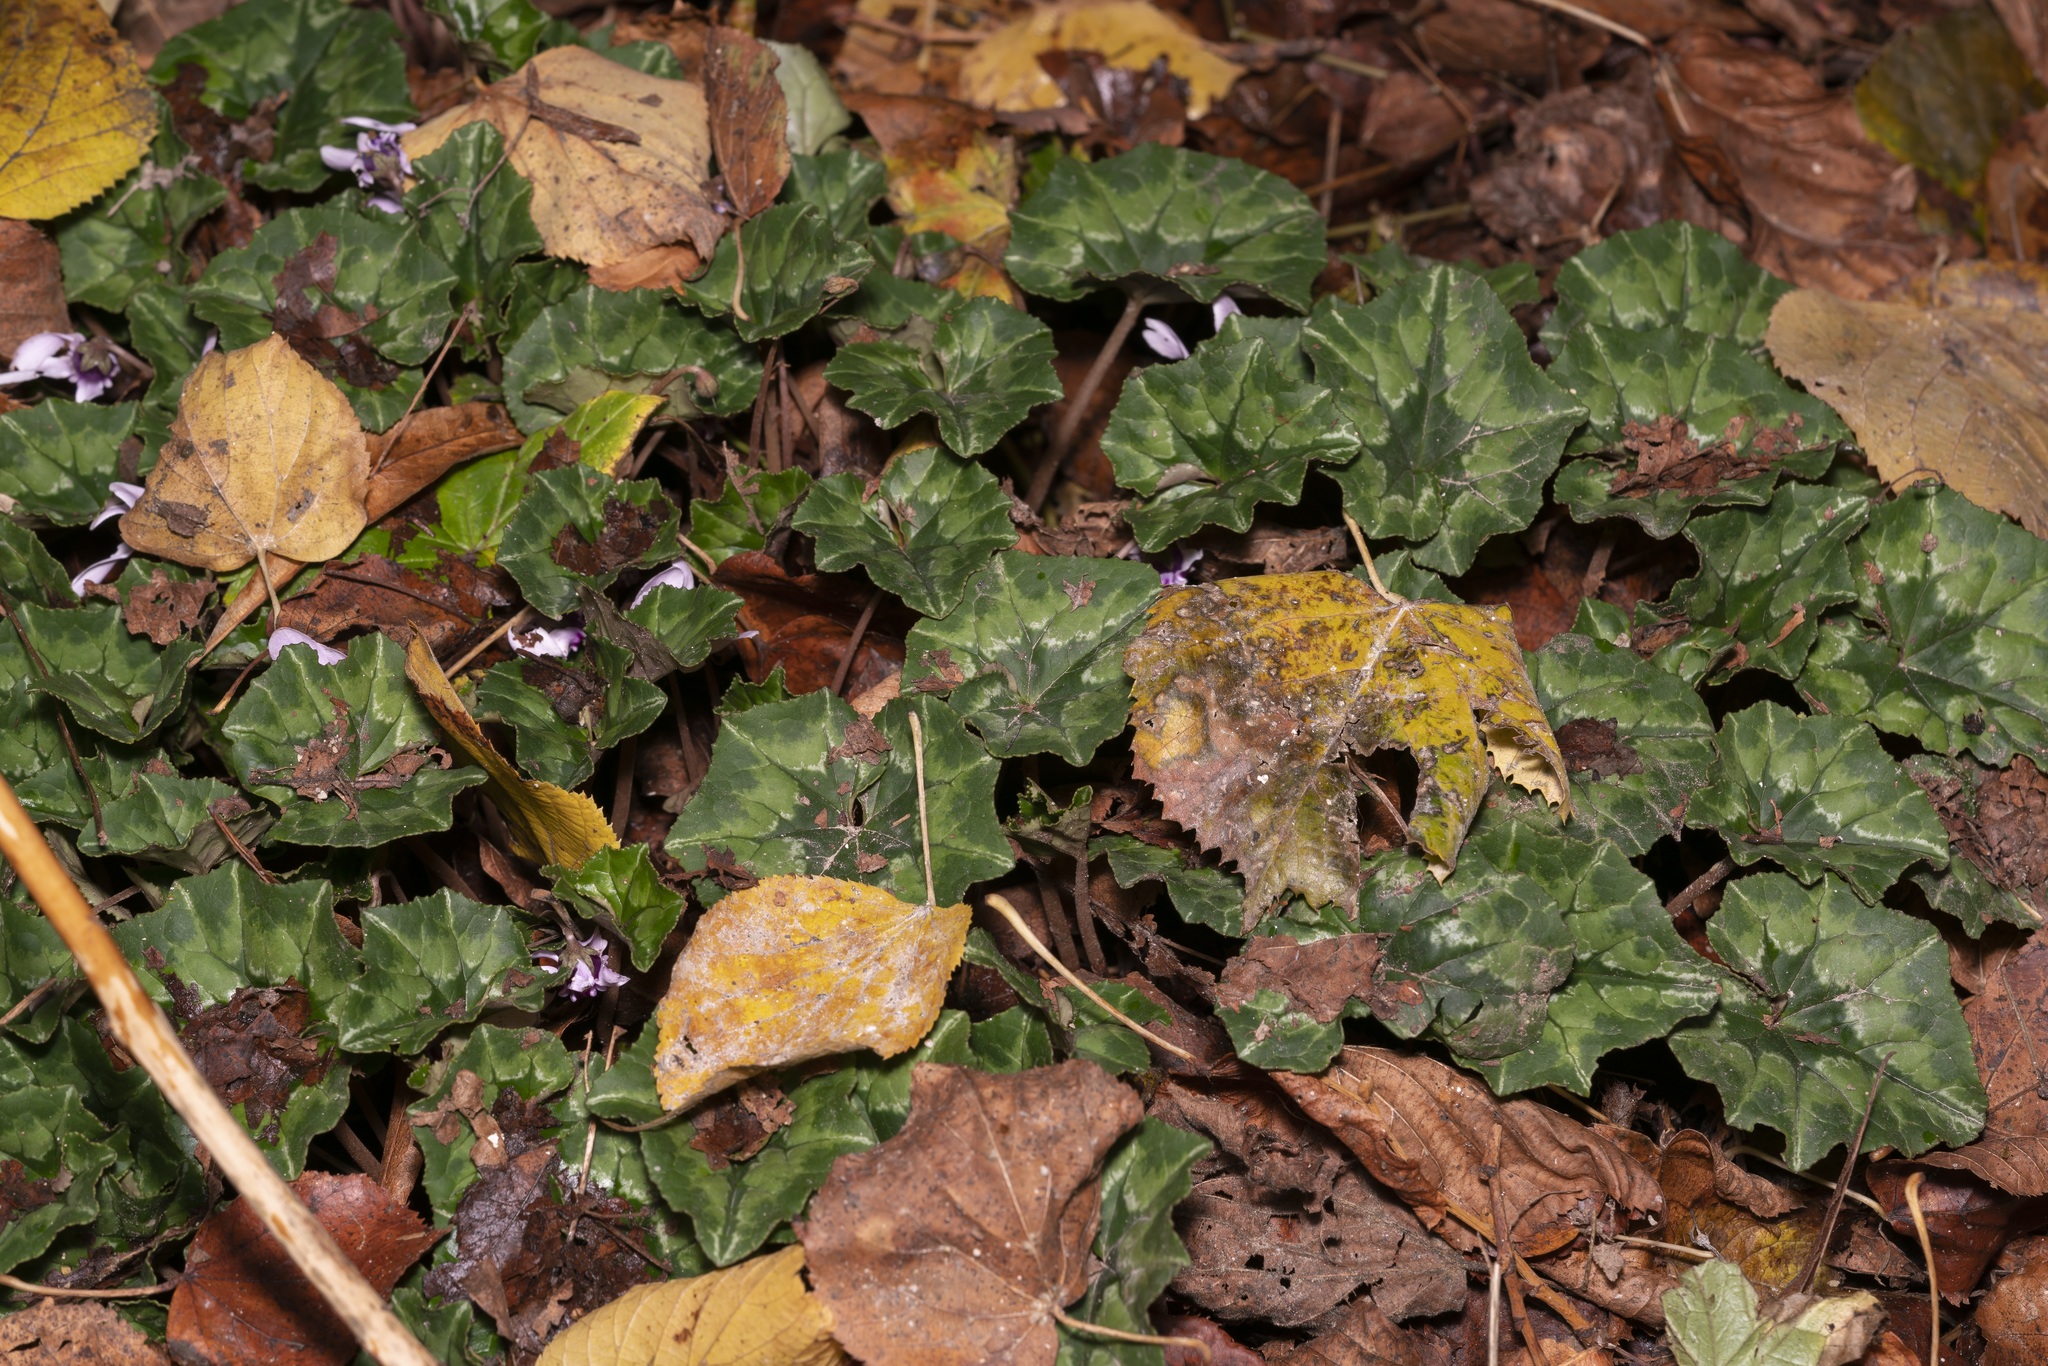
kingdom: Plantae
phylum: Tracheophyta
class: Magnoliopsida
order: Ericales
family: Primulaceae
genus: Cyclamen
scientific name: Cyclamen hederifolium
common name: Sowbread
